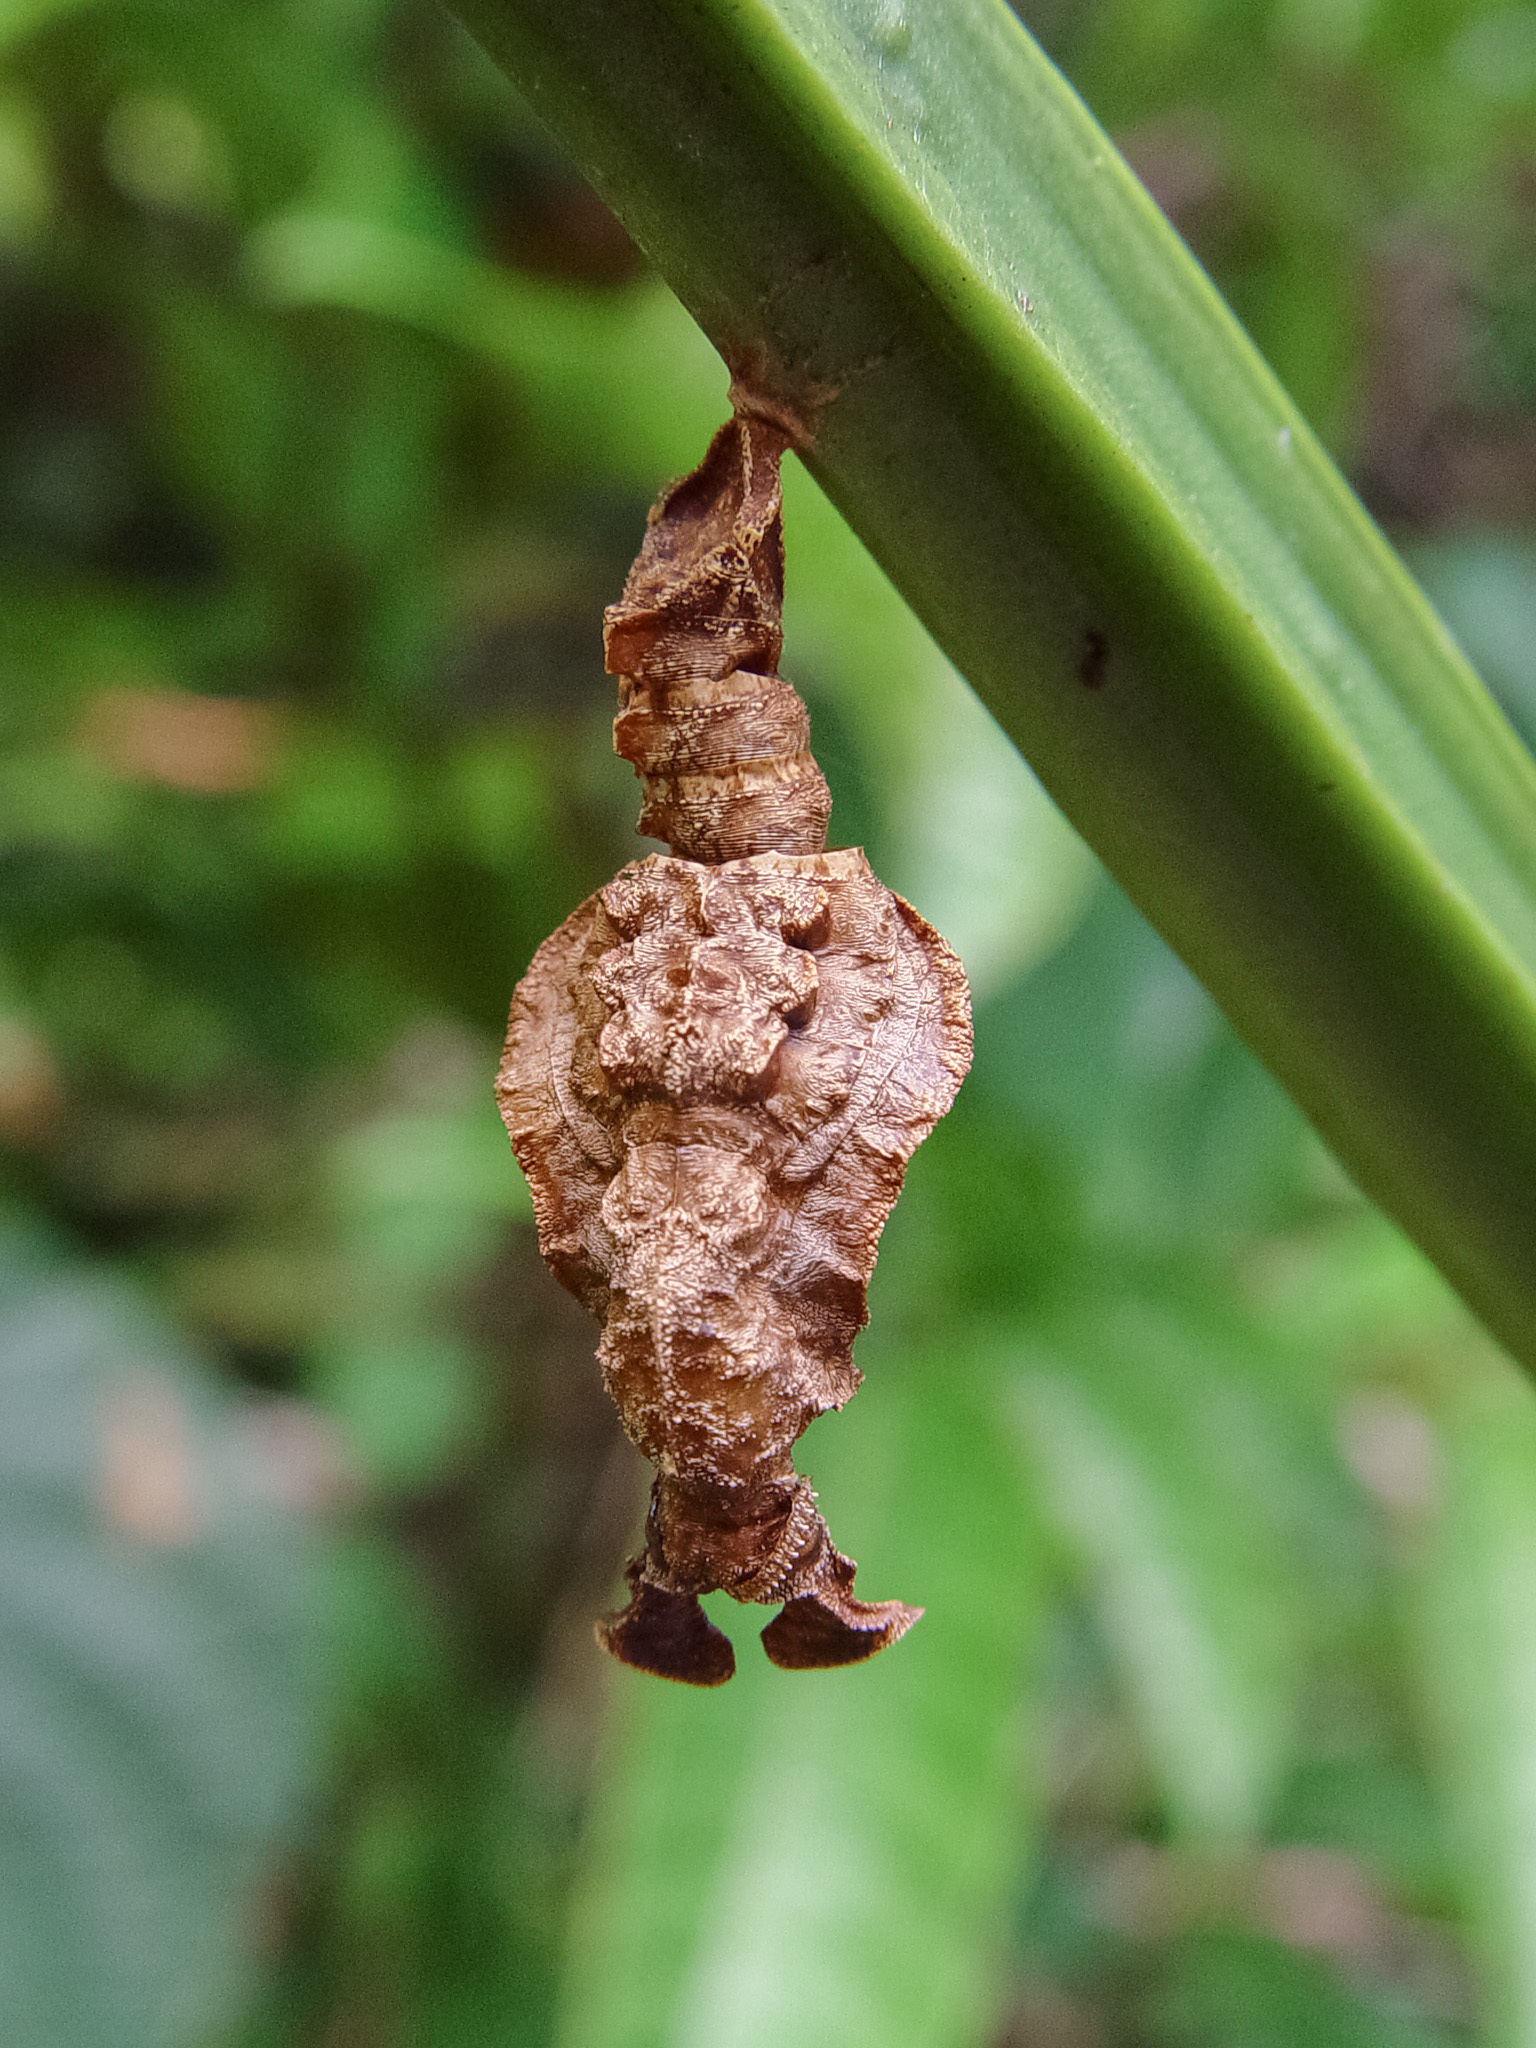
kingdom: Animalia
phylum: Arthropoda
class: Insecta
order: Lepidoptera
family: Nymphalidae
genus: Limenitis
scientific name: Limenitis Moduza procris
